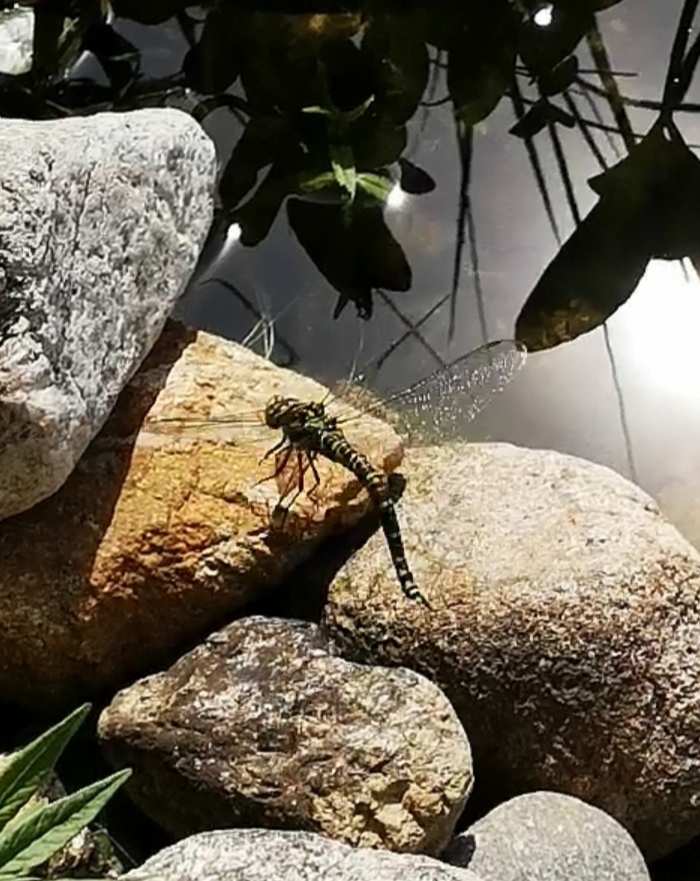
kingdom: Animalia
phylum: Arthropoda
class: Insecta
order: Odonata
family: Aeshnidae
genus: Aeshna
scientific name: Aeshna cyanea
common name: Southern hawker
